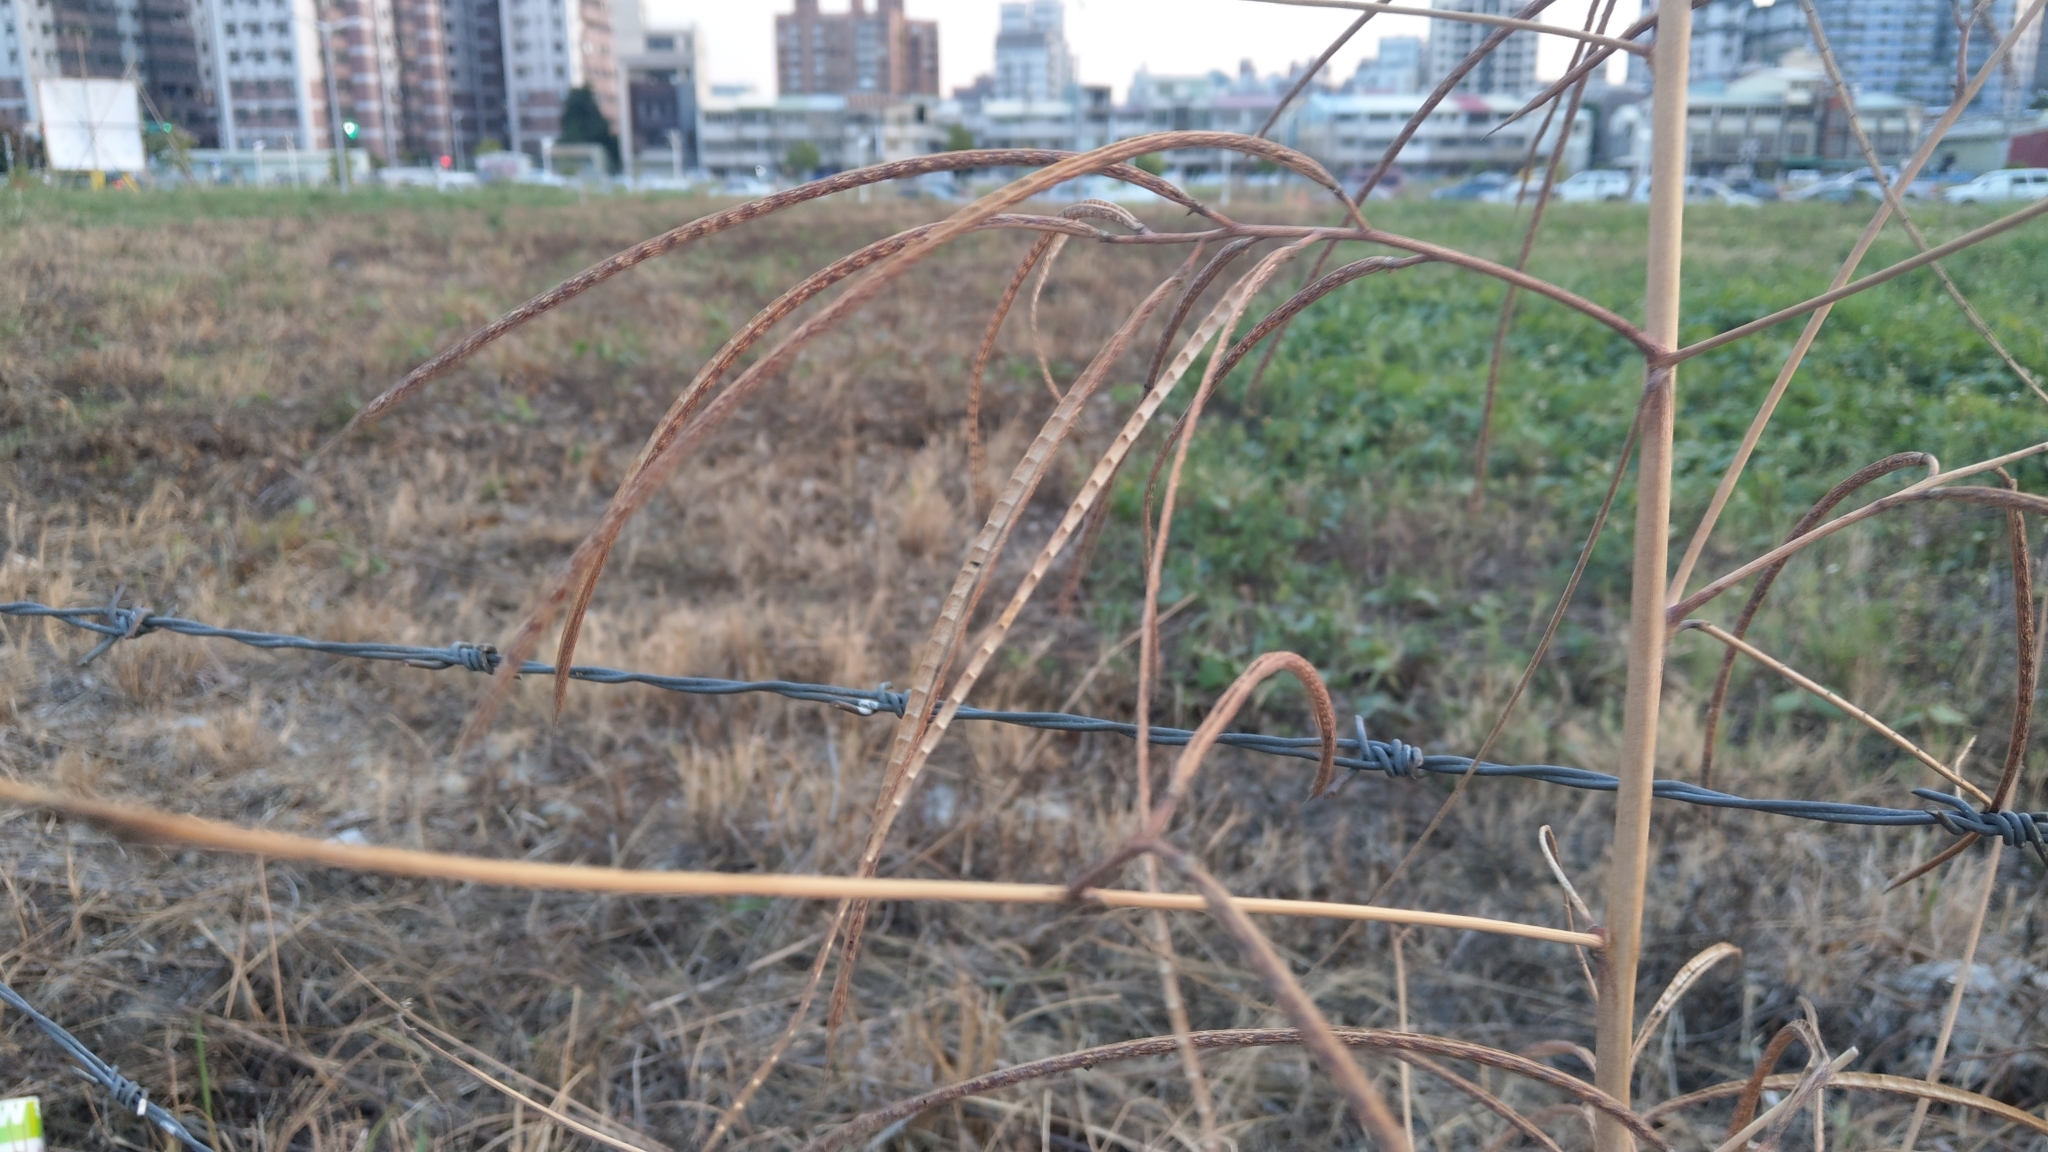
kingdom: Plantae
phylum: Tracheophyta
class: Magnoliopsida
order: Fabales
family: Fabaceae
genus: Sesbania
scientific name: Sesbania cannabina
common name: Canicha
